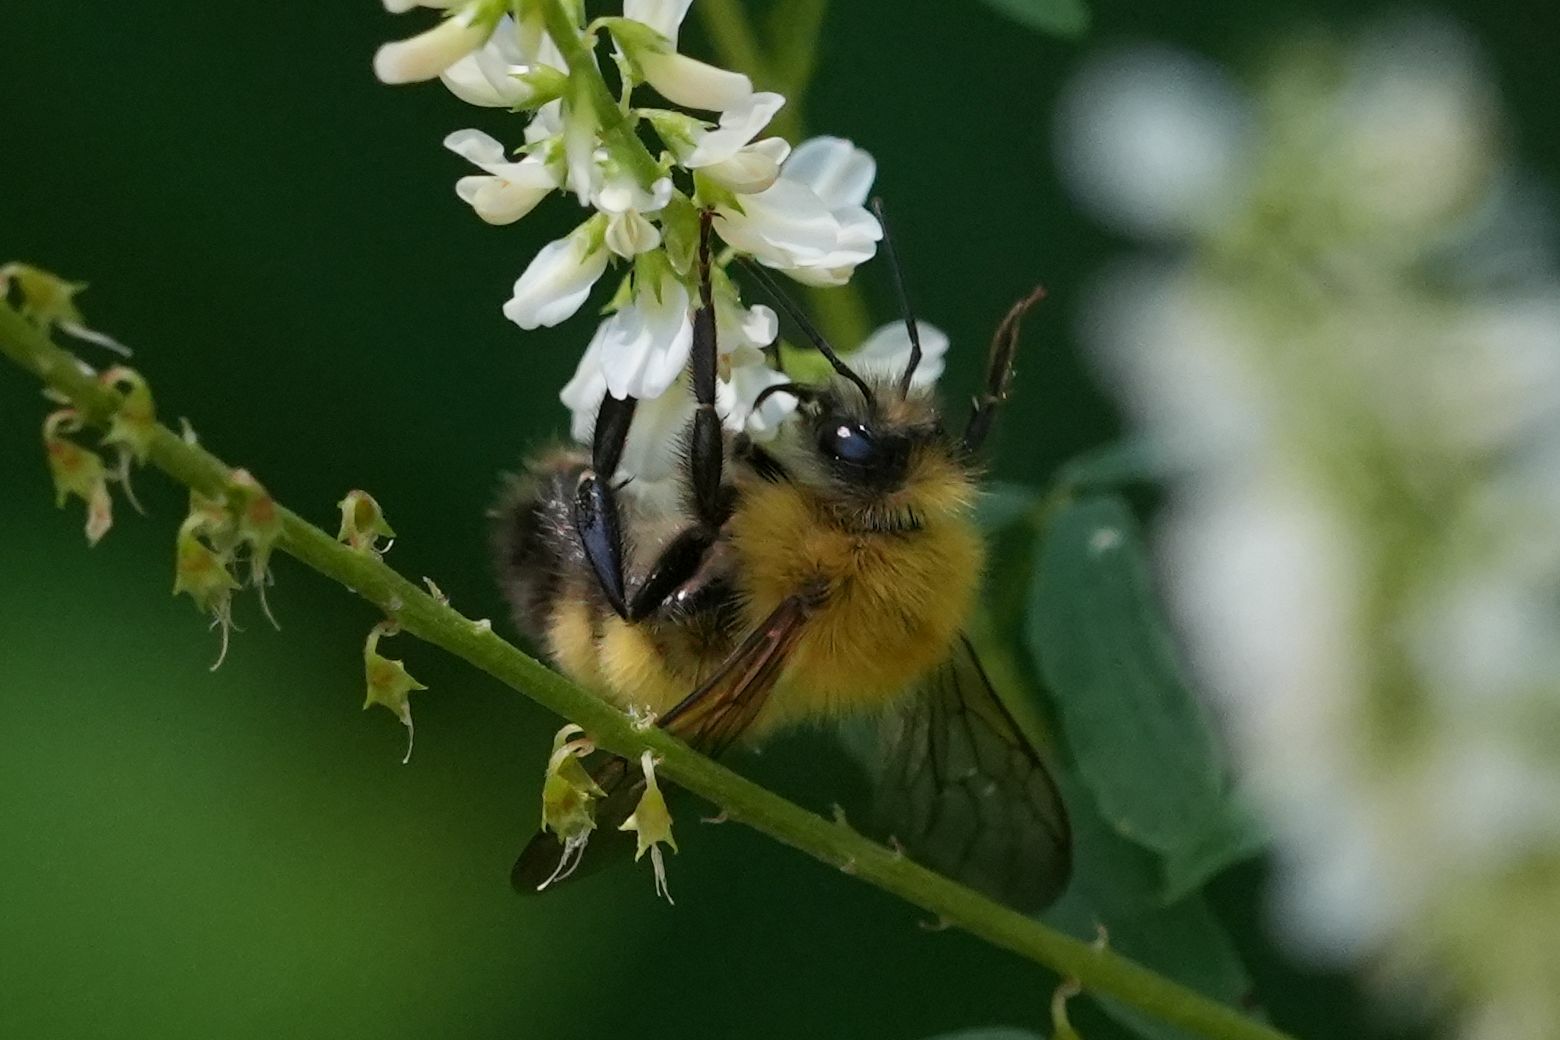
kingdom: Animalia
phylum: Arthropoda
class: Insecta
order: Hymenoptera
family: Apidae
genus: Bombus
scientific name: Bombus perplexus
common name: Confusing bumble bee
